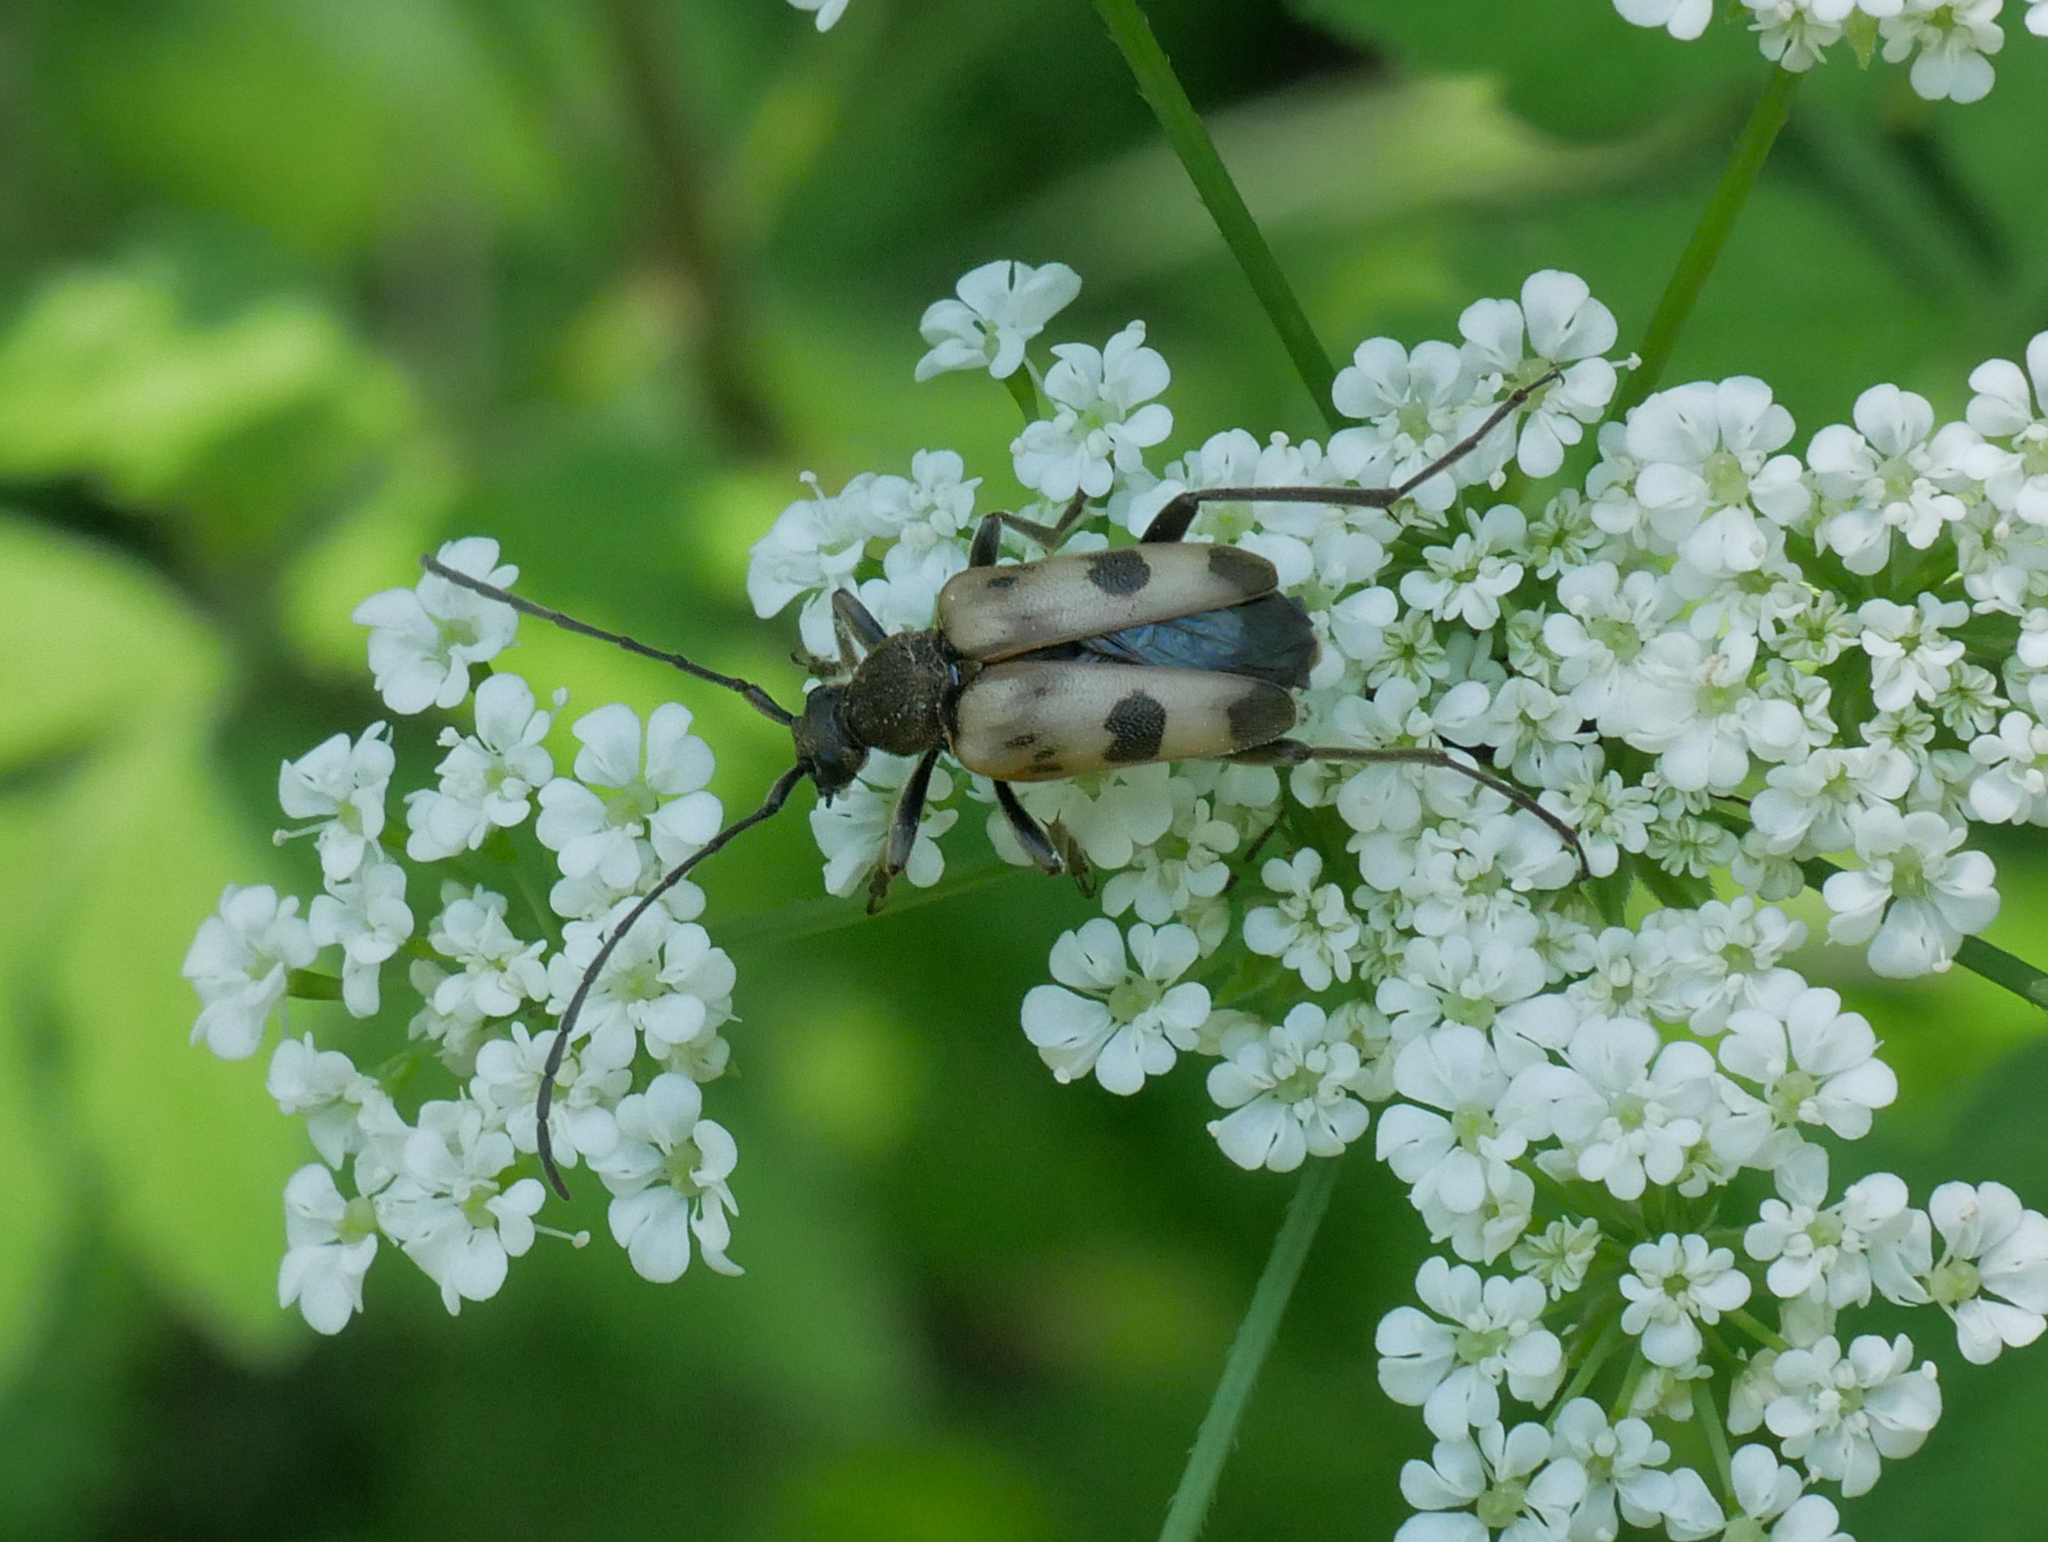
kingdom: Animalia
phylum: Arthropoda
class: Insecta
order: Coleoptera
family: Cerambycidae
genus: Pachytodes
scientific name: Pachytodes cerambyciformis
